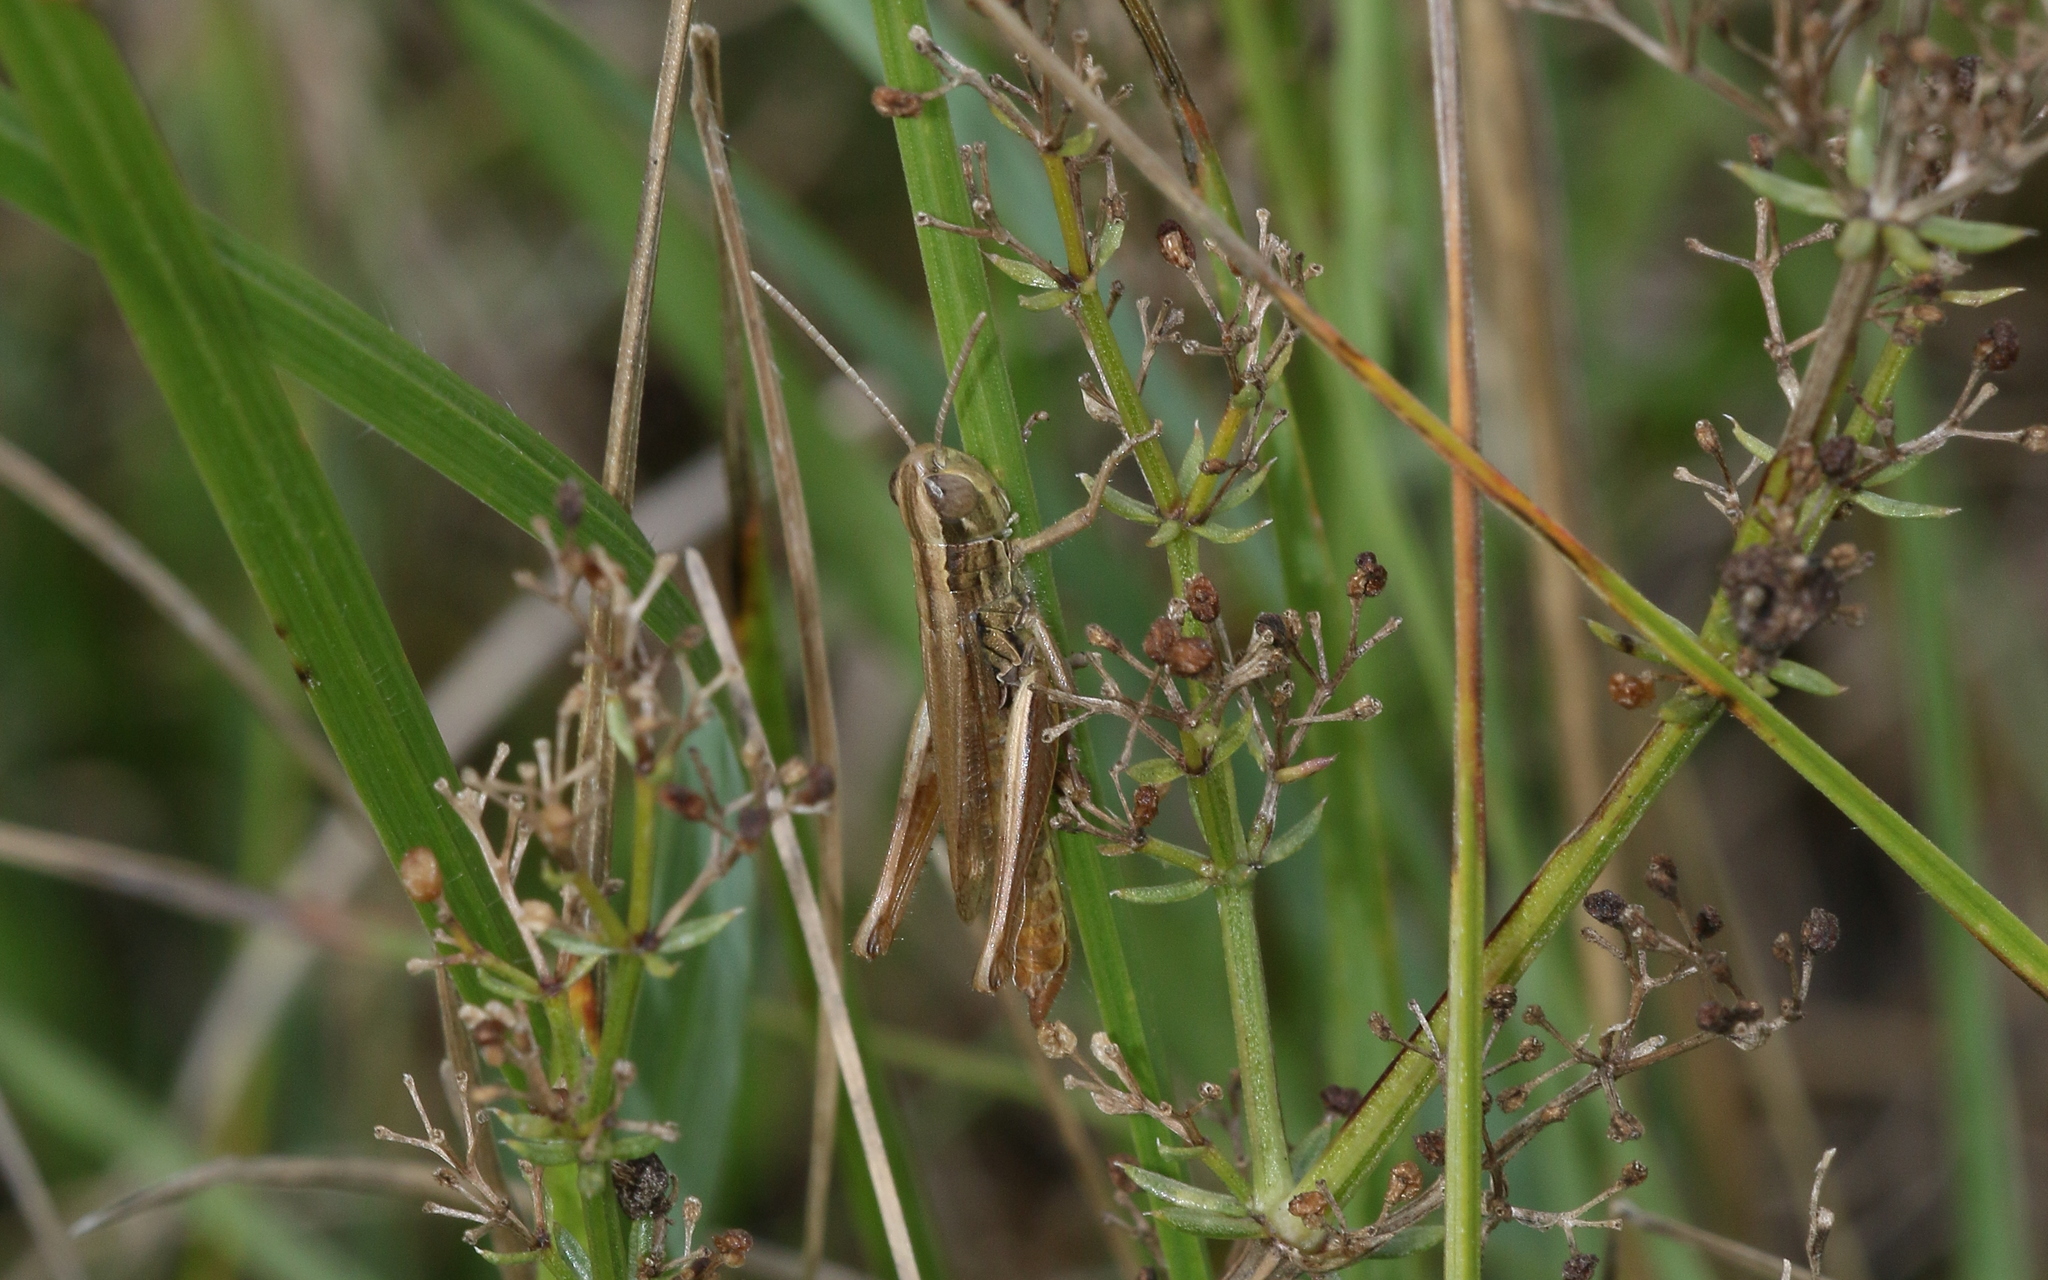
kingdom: Animalia
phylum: Arthropoda
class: Insecta
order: Orthoptera
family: Acrididae
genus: Euchorthippus
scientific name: Euchorthippus declivus
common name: Common straw grasshopper
